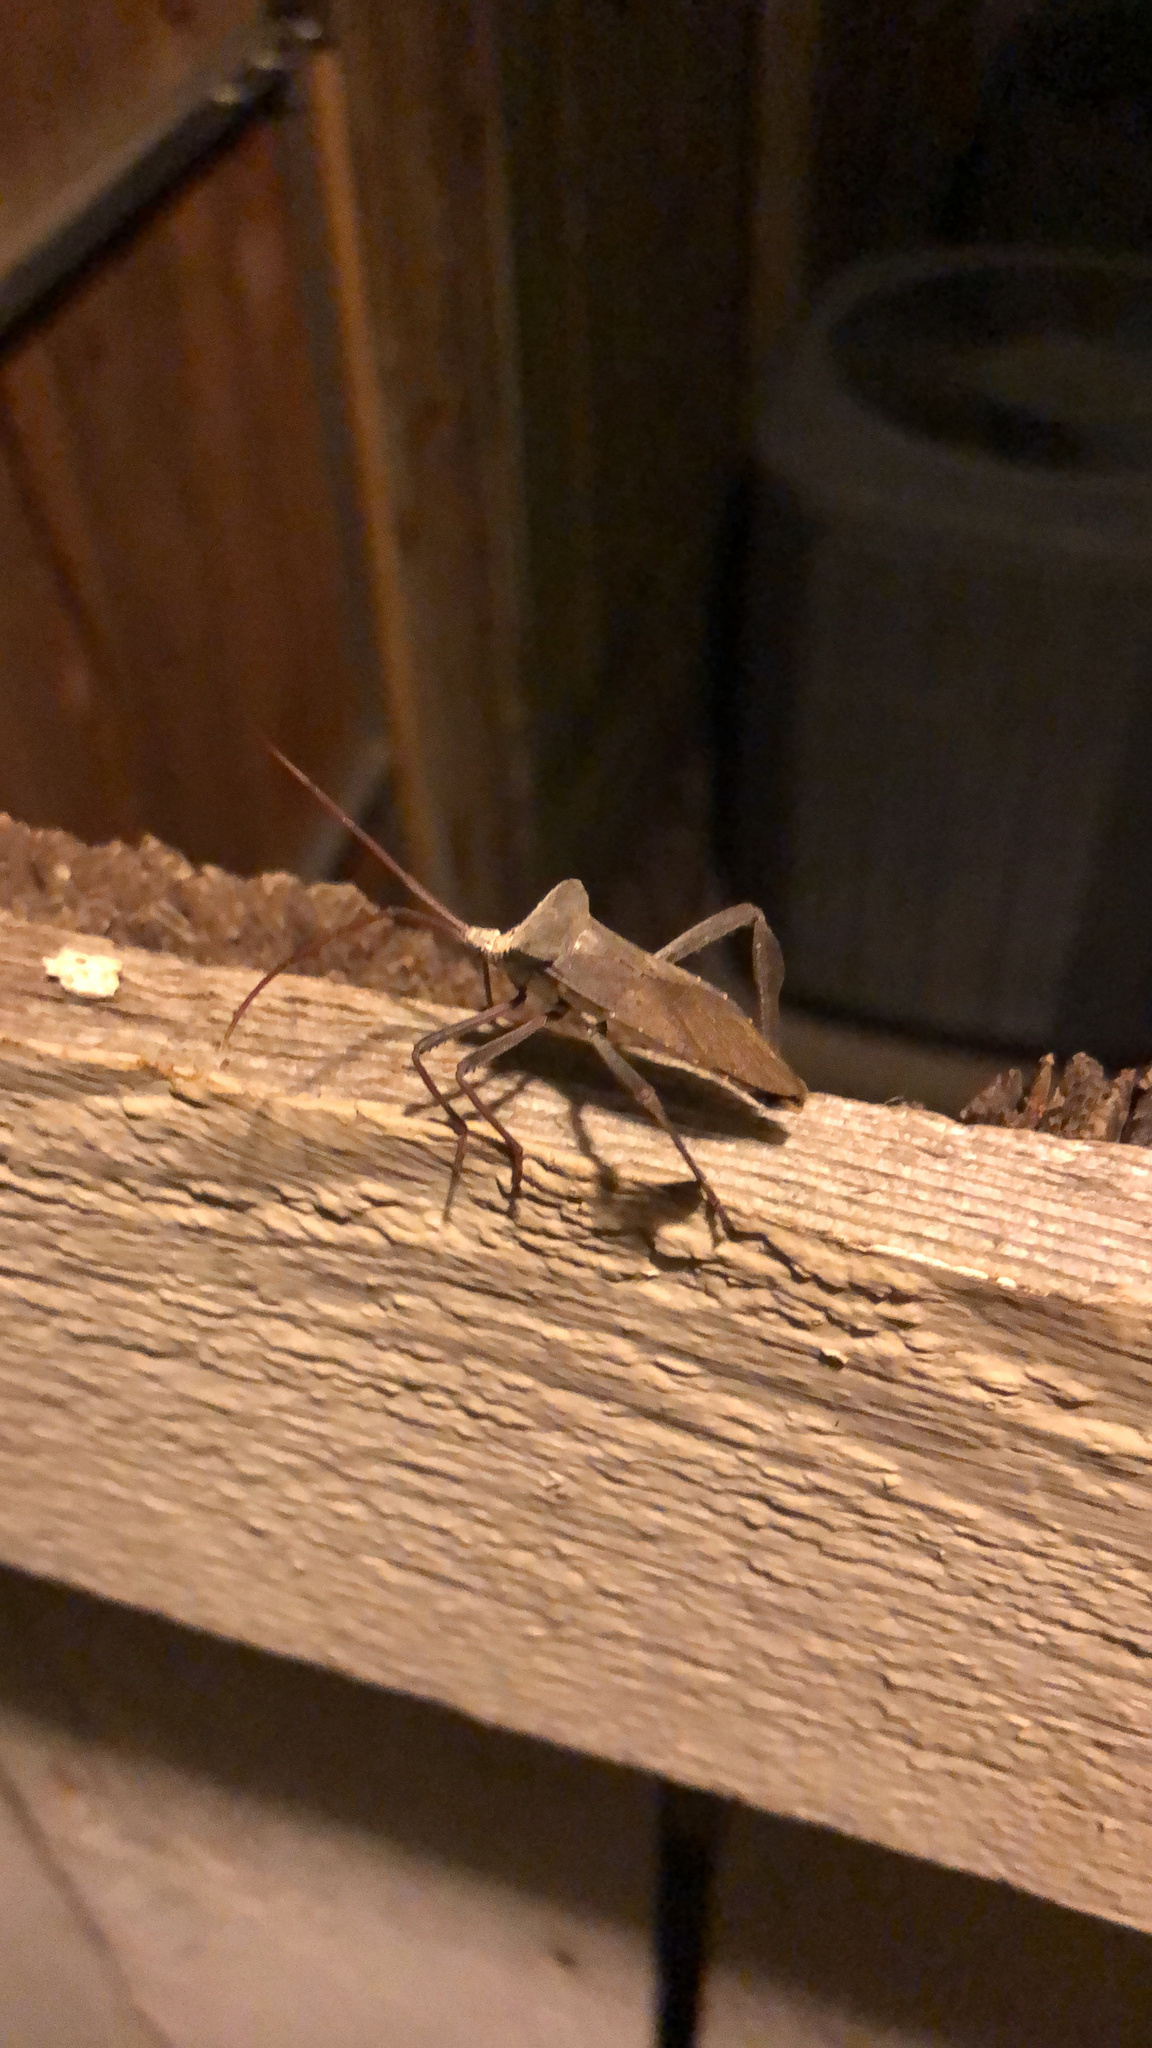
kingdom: Animalia
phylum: Arthropoda
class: Insecta
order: Hemiptera
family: Coreidae
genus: Acanthocephala
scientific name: Acanthocephala declivis
